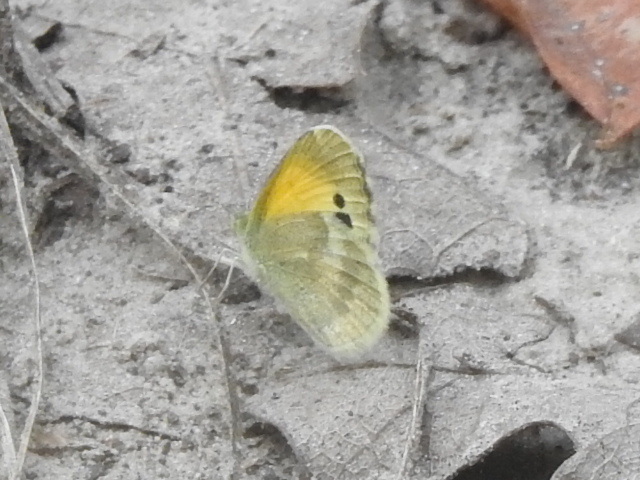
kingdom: Animalia
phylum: Arthropoda
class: Insecta
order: Lepidoptera
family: Pieridae
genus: Nathalis
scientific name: Nathalis iole
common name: Dainty sulphur
